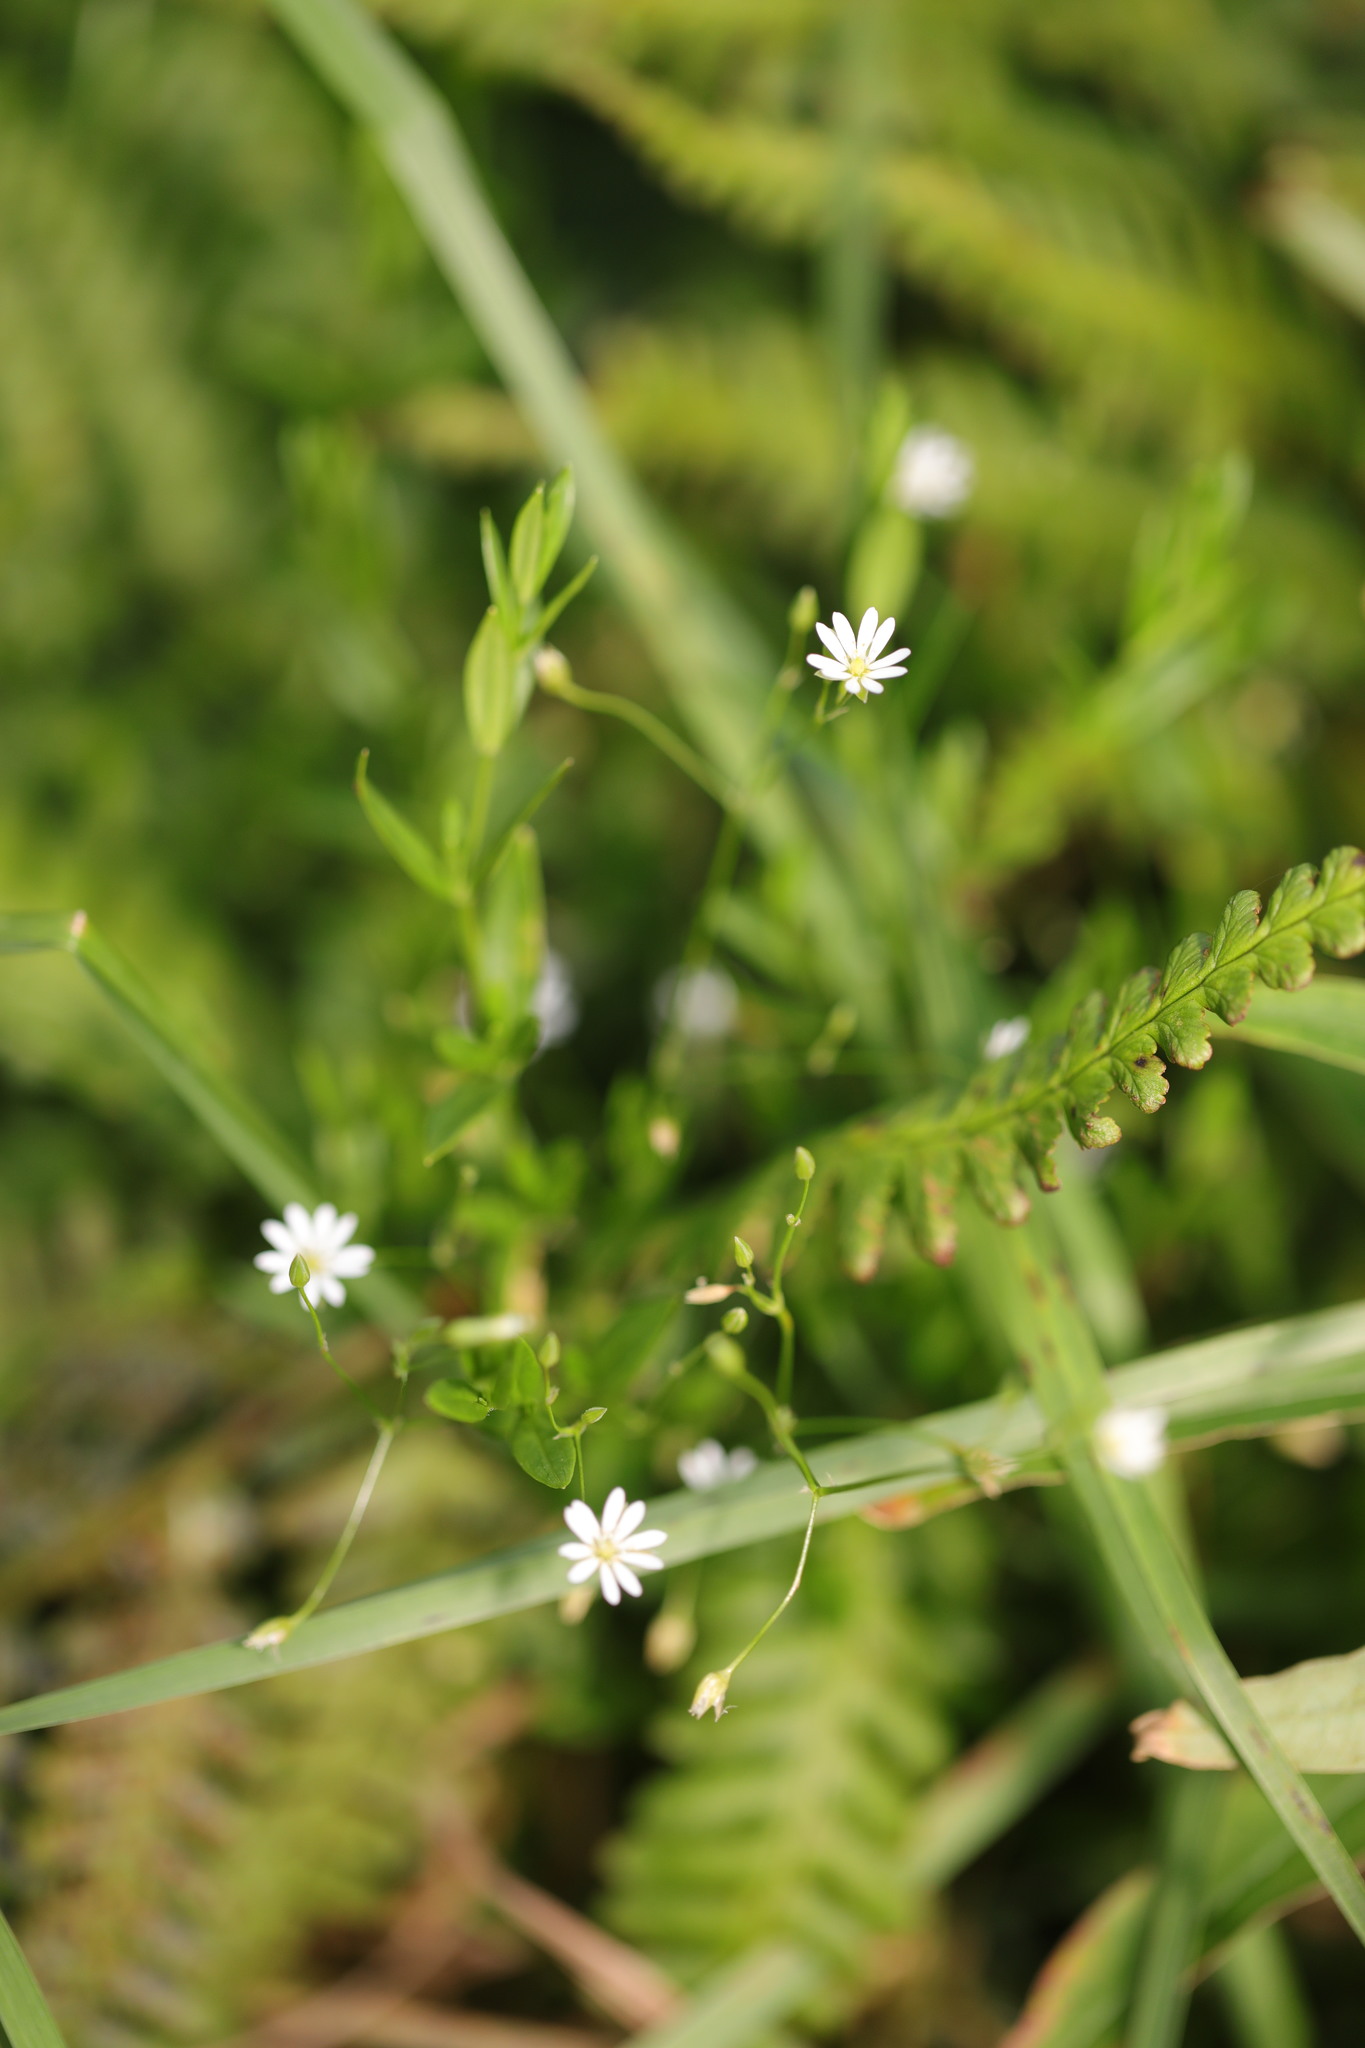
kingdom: Plantae
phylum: Tracheophyta
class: Magnoliopsida
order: Caryophyllales
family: Caryophyllaceae
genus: Stellaria
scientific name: Stellaria graminea
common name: Grass-like starwort
